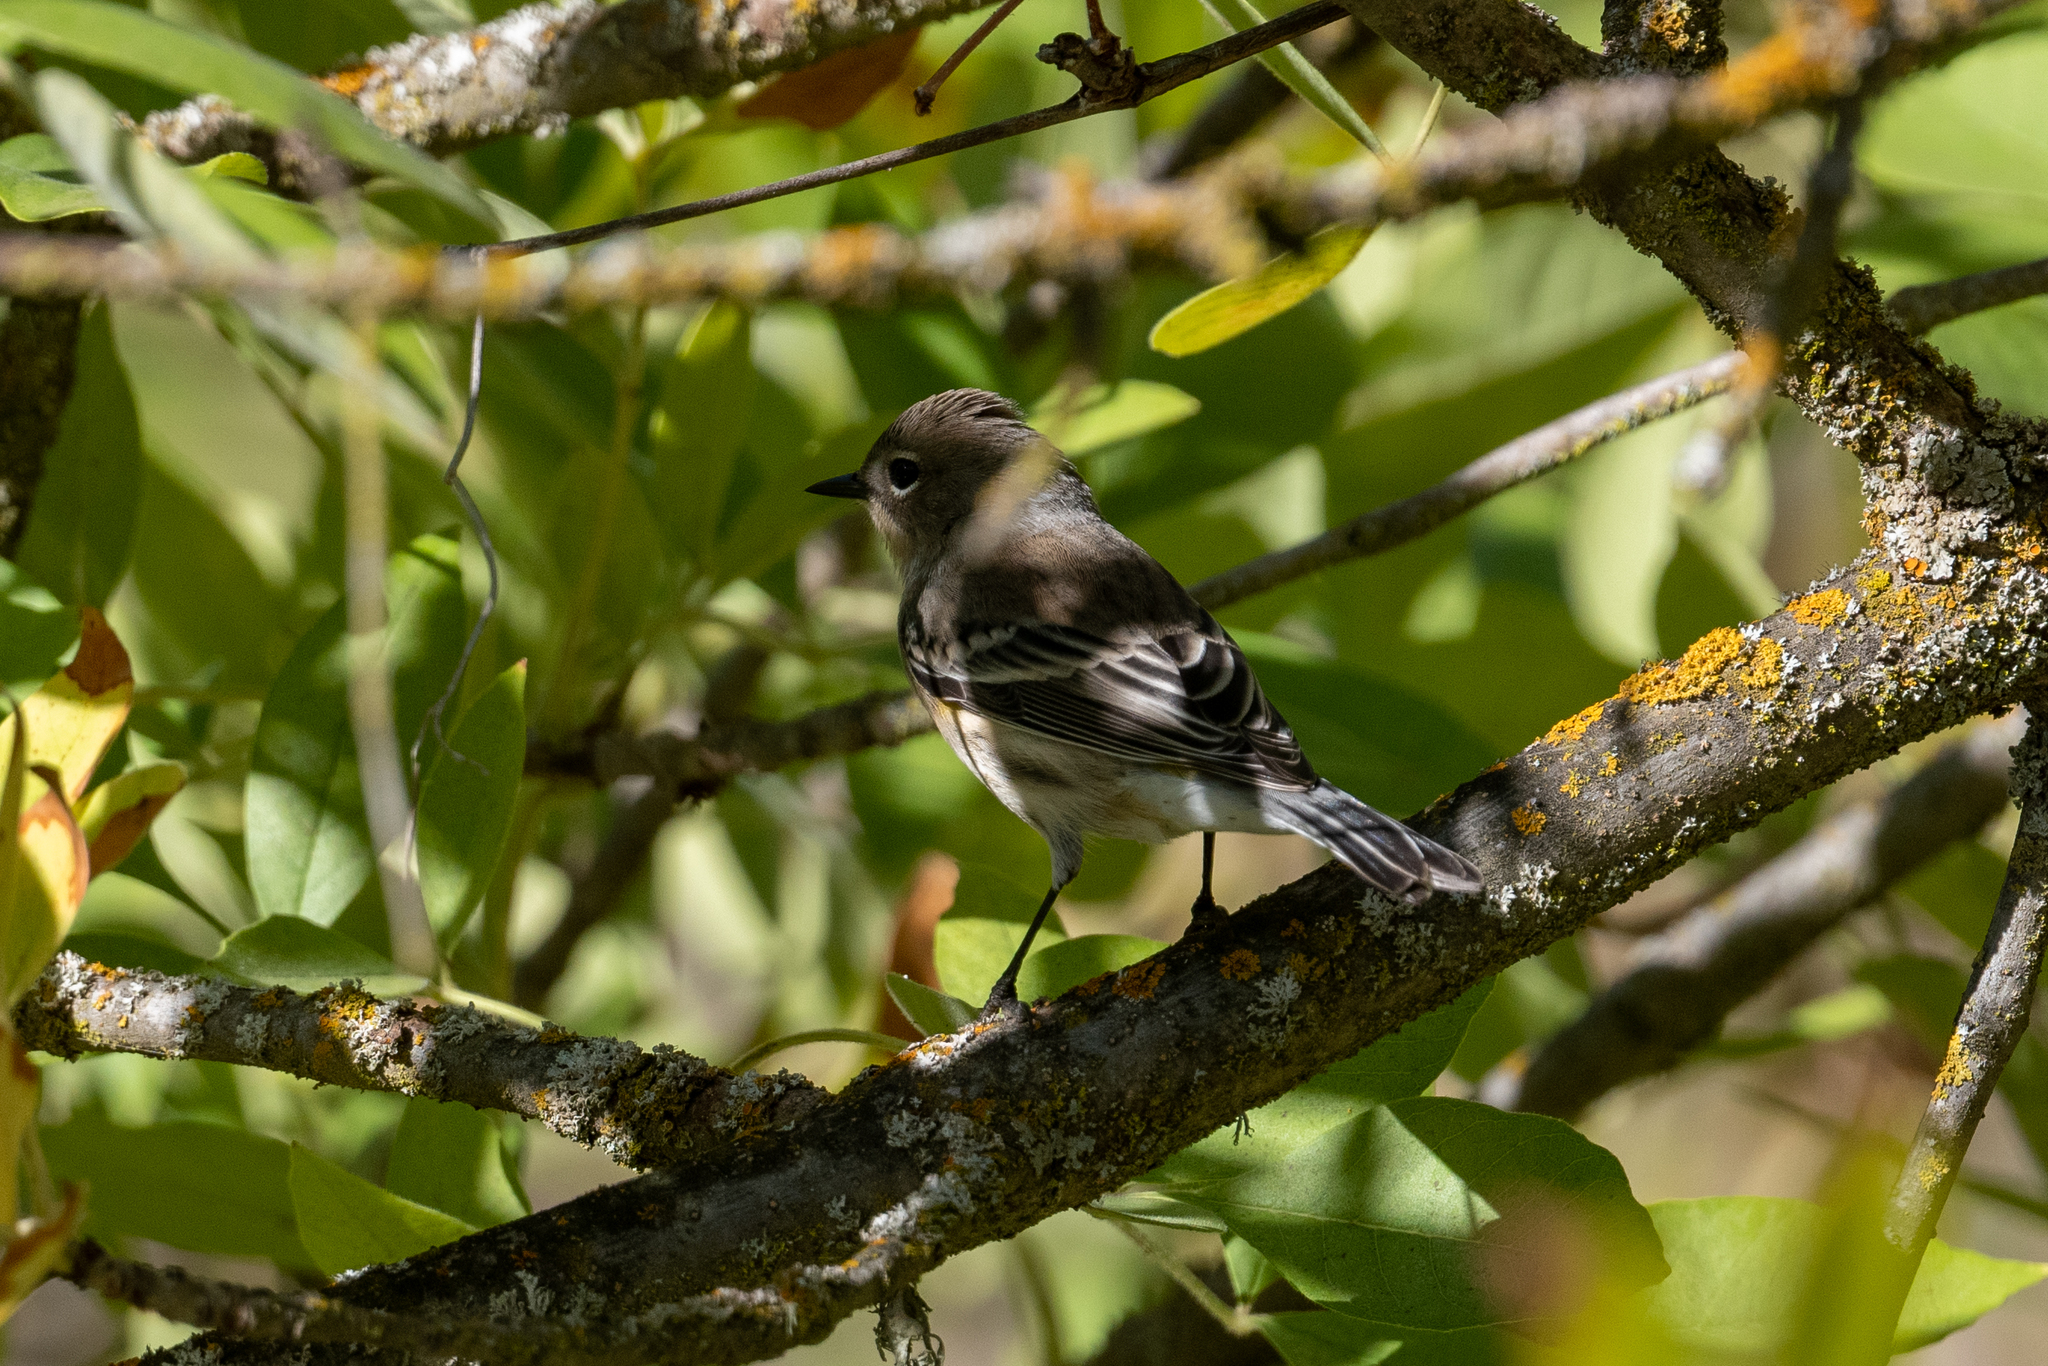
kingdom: Animalia
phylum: Chordata
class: Aves
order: Passeriformes
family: Parulidae
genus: Setophaga
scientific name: Setophaga coronata
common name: Myrtle warbler
